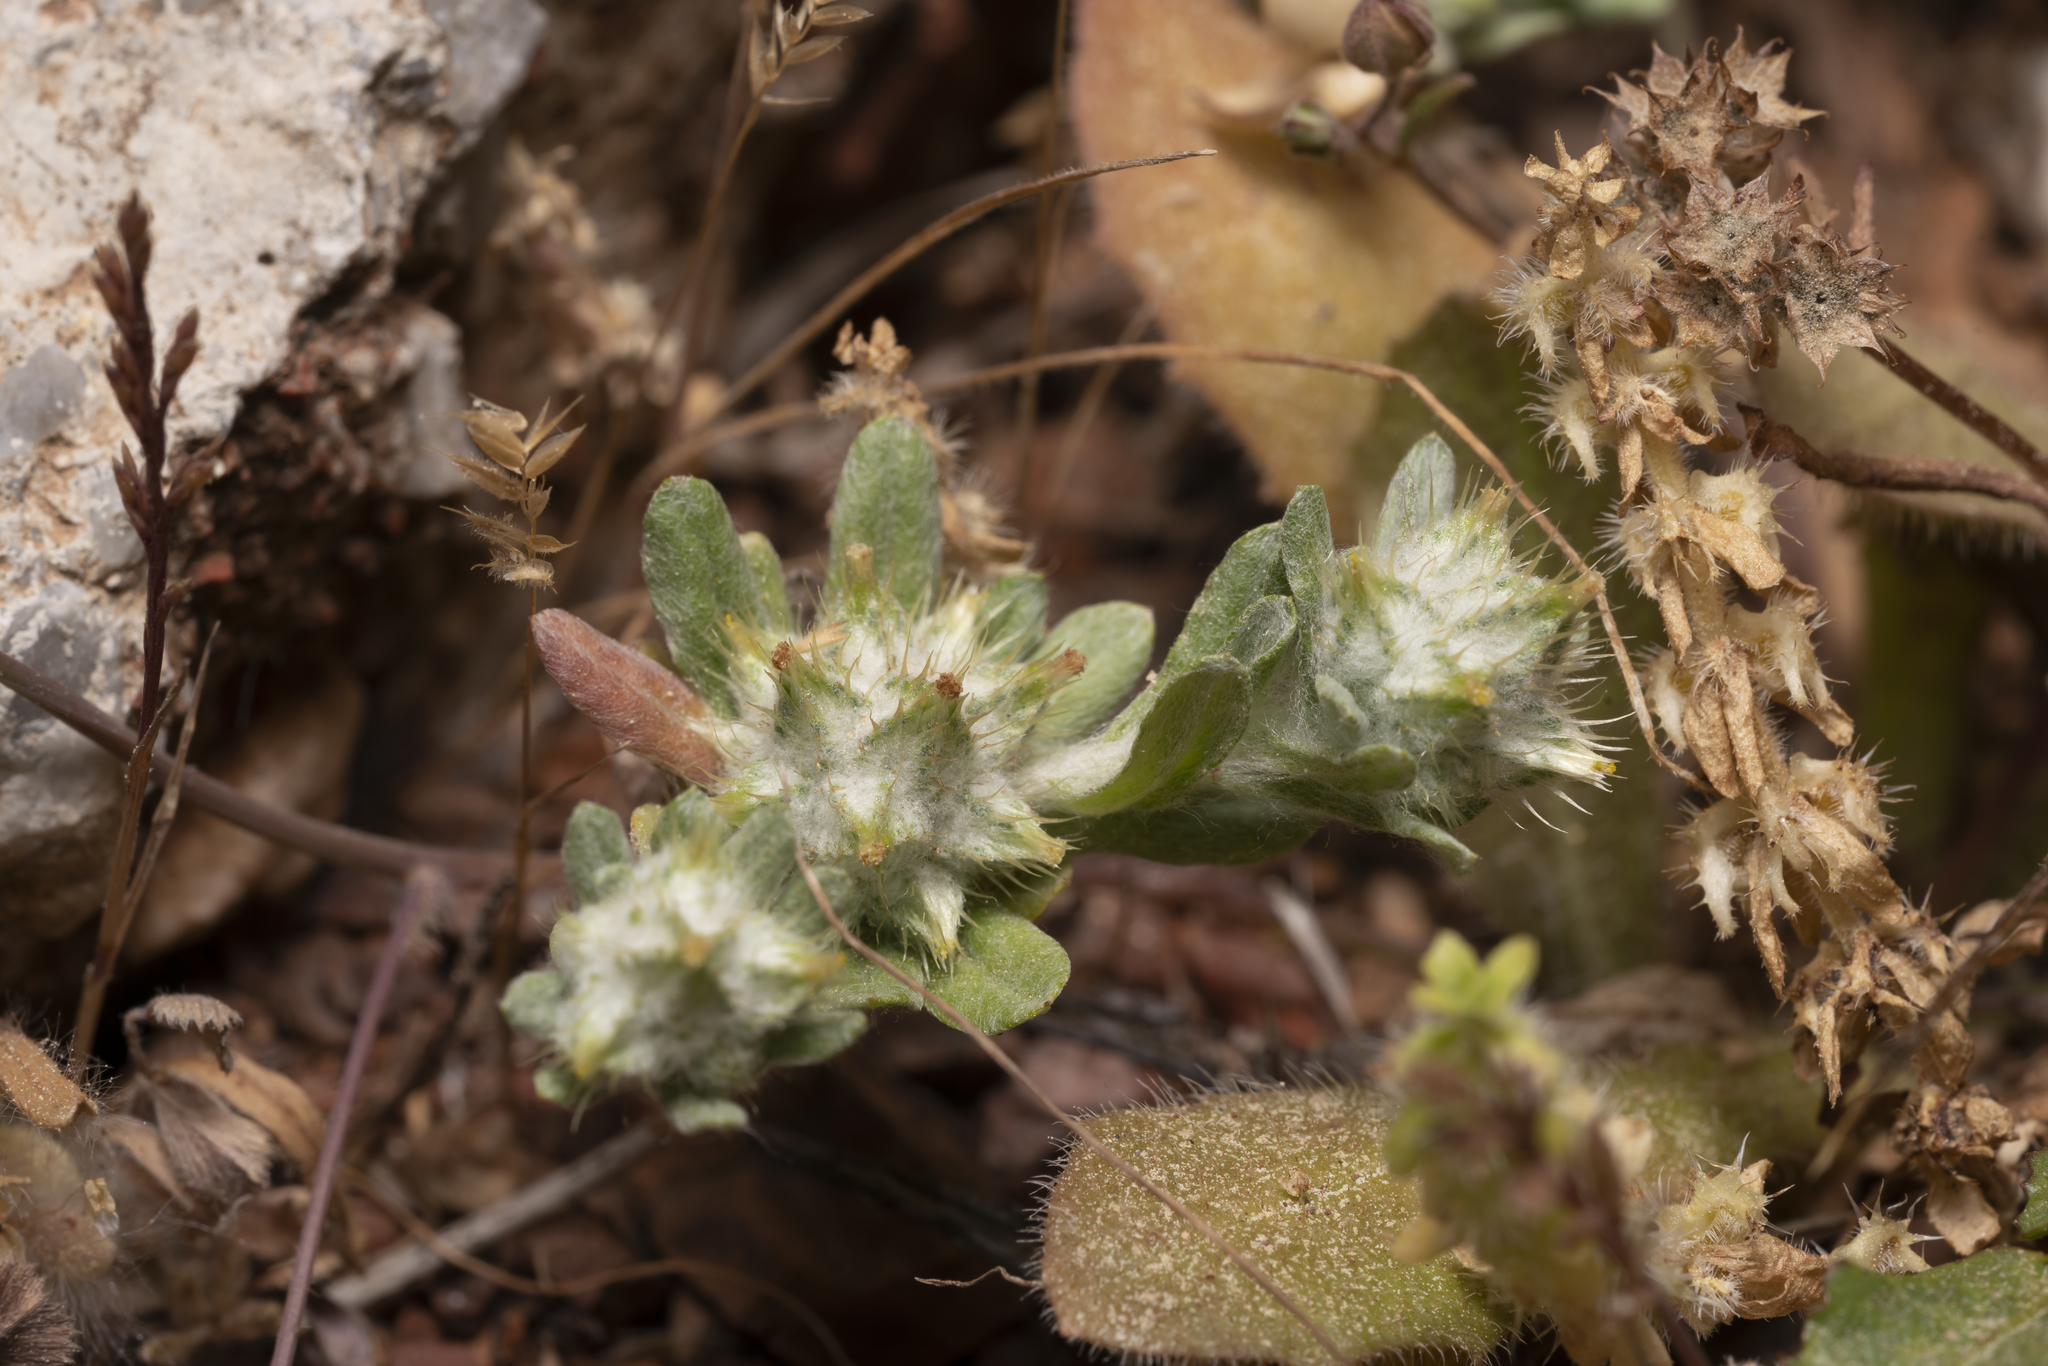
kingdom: Plantae
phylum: Tracheophyta
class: Magnoliopsida
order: Asterales
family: Asteraceae
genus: Filago
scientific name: Filago pyramidata
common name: Broad-leaved cudweed
